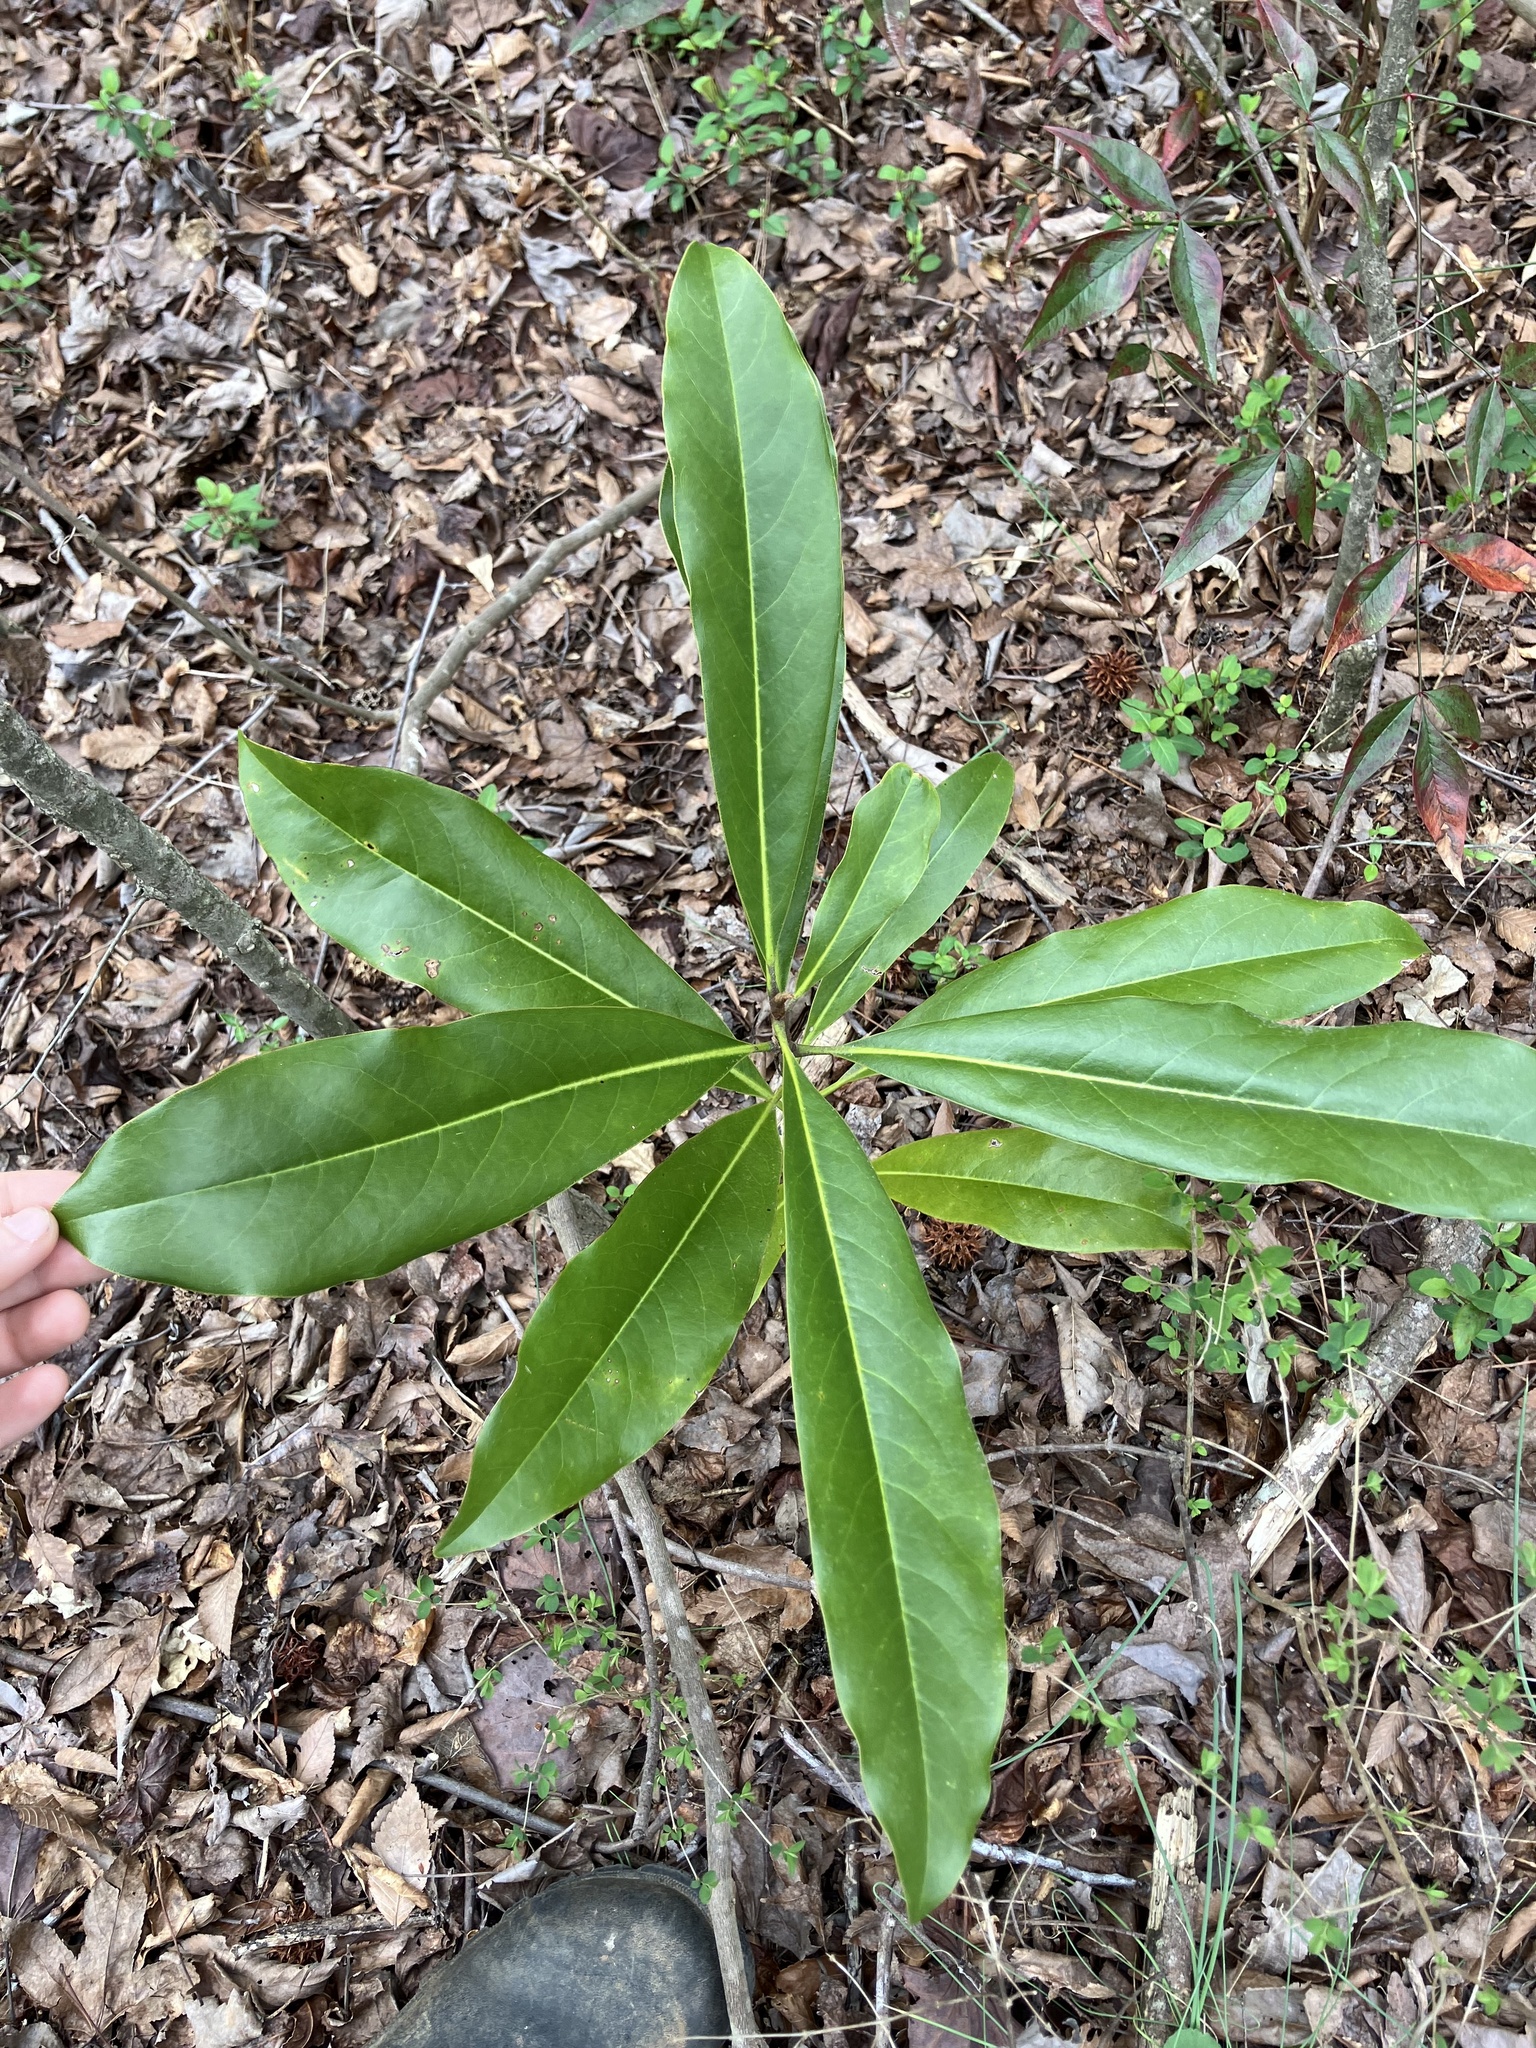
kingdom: Plantae
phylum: Tracheophyta
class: Magnoliopsida
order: Magnoliales
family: Magnoliaceae
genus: Magnolia
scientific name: Magnolia grandiflora
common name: Southern magnolia
